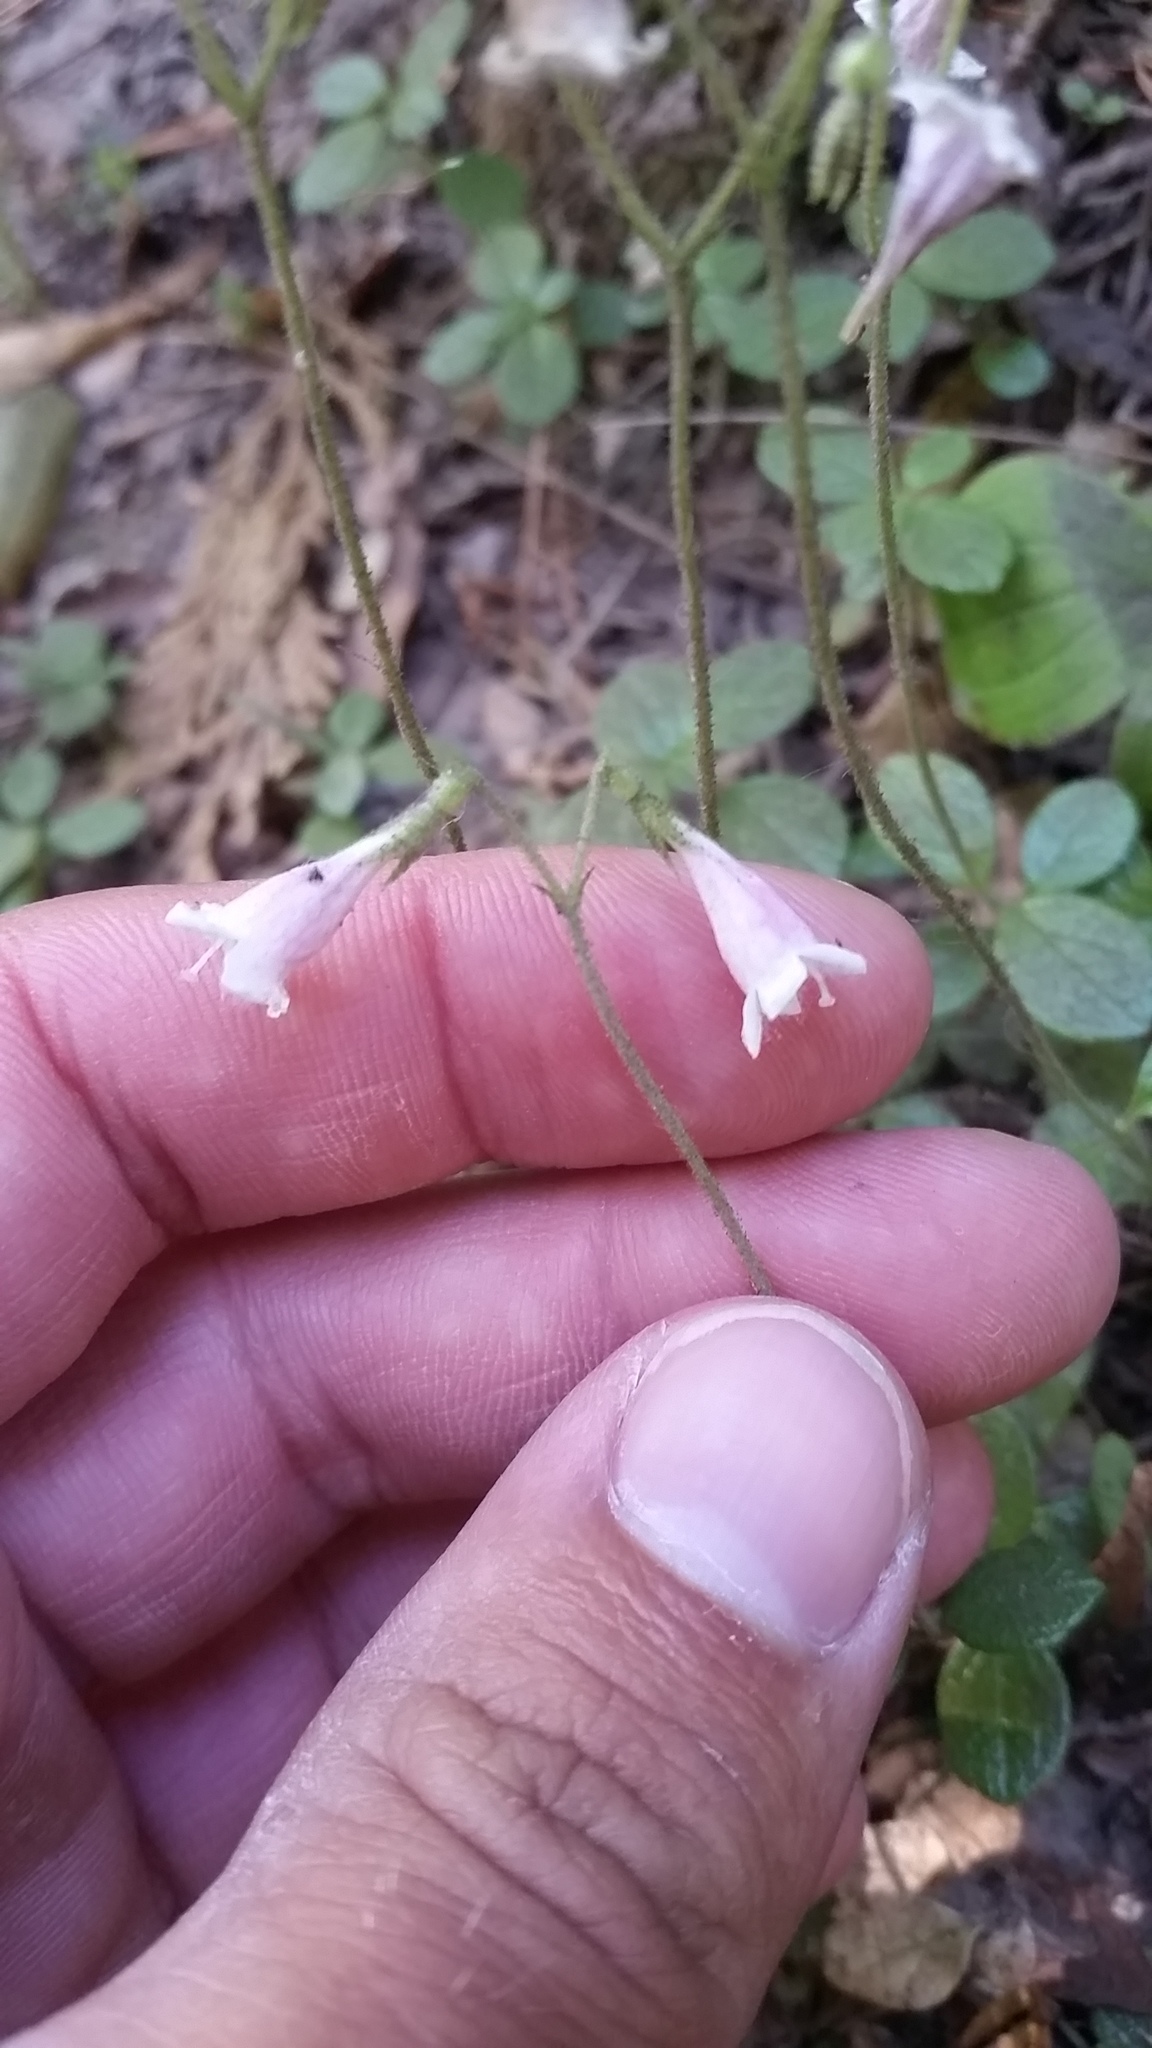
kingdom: Plantae
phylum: Tracheophyta
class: Magnoliopsida
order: Dipsacales
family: Caprifoliaceae
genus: Linnaea
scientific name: Linnaea borealis
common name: Twinflower
